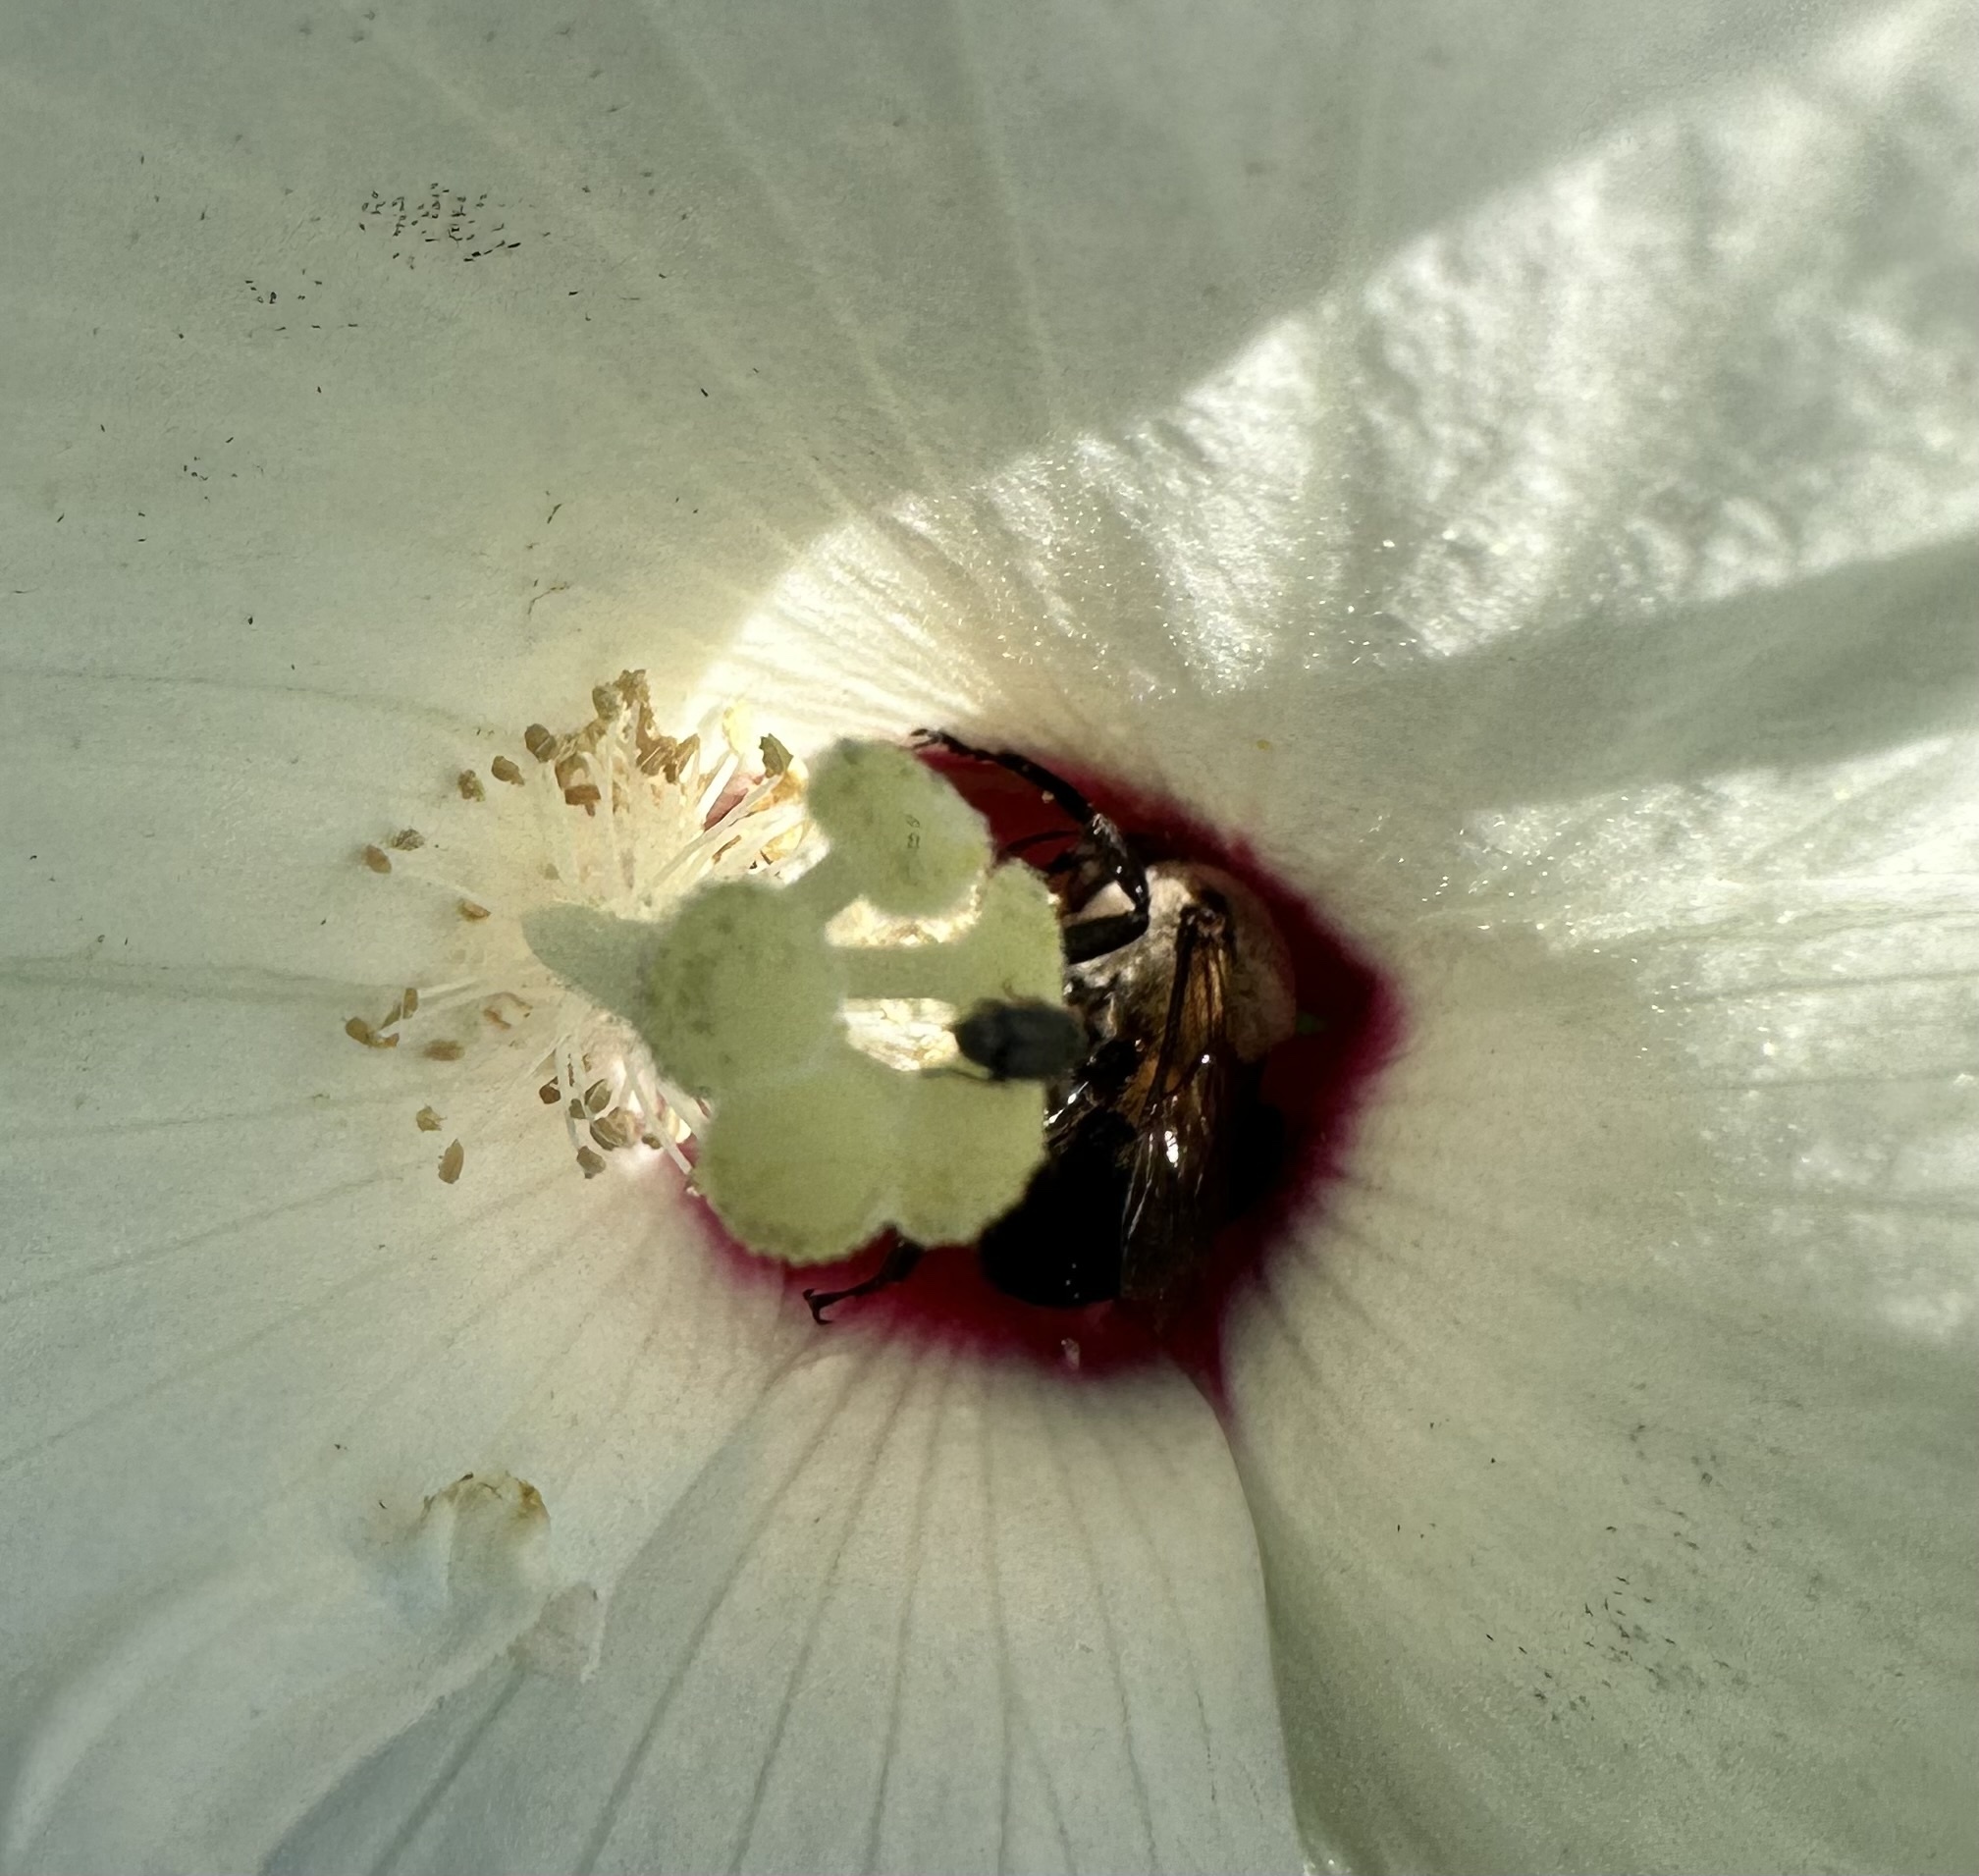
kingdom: Animalia
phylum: Arthropoda
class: Insecta
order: Hymenoptera
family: Apidae
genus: Ptilothrix
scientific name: Ptilothrix bombiformis
